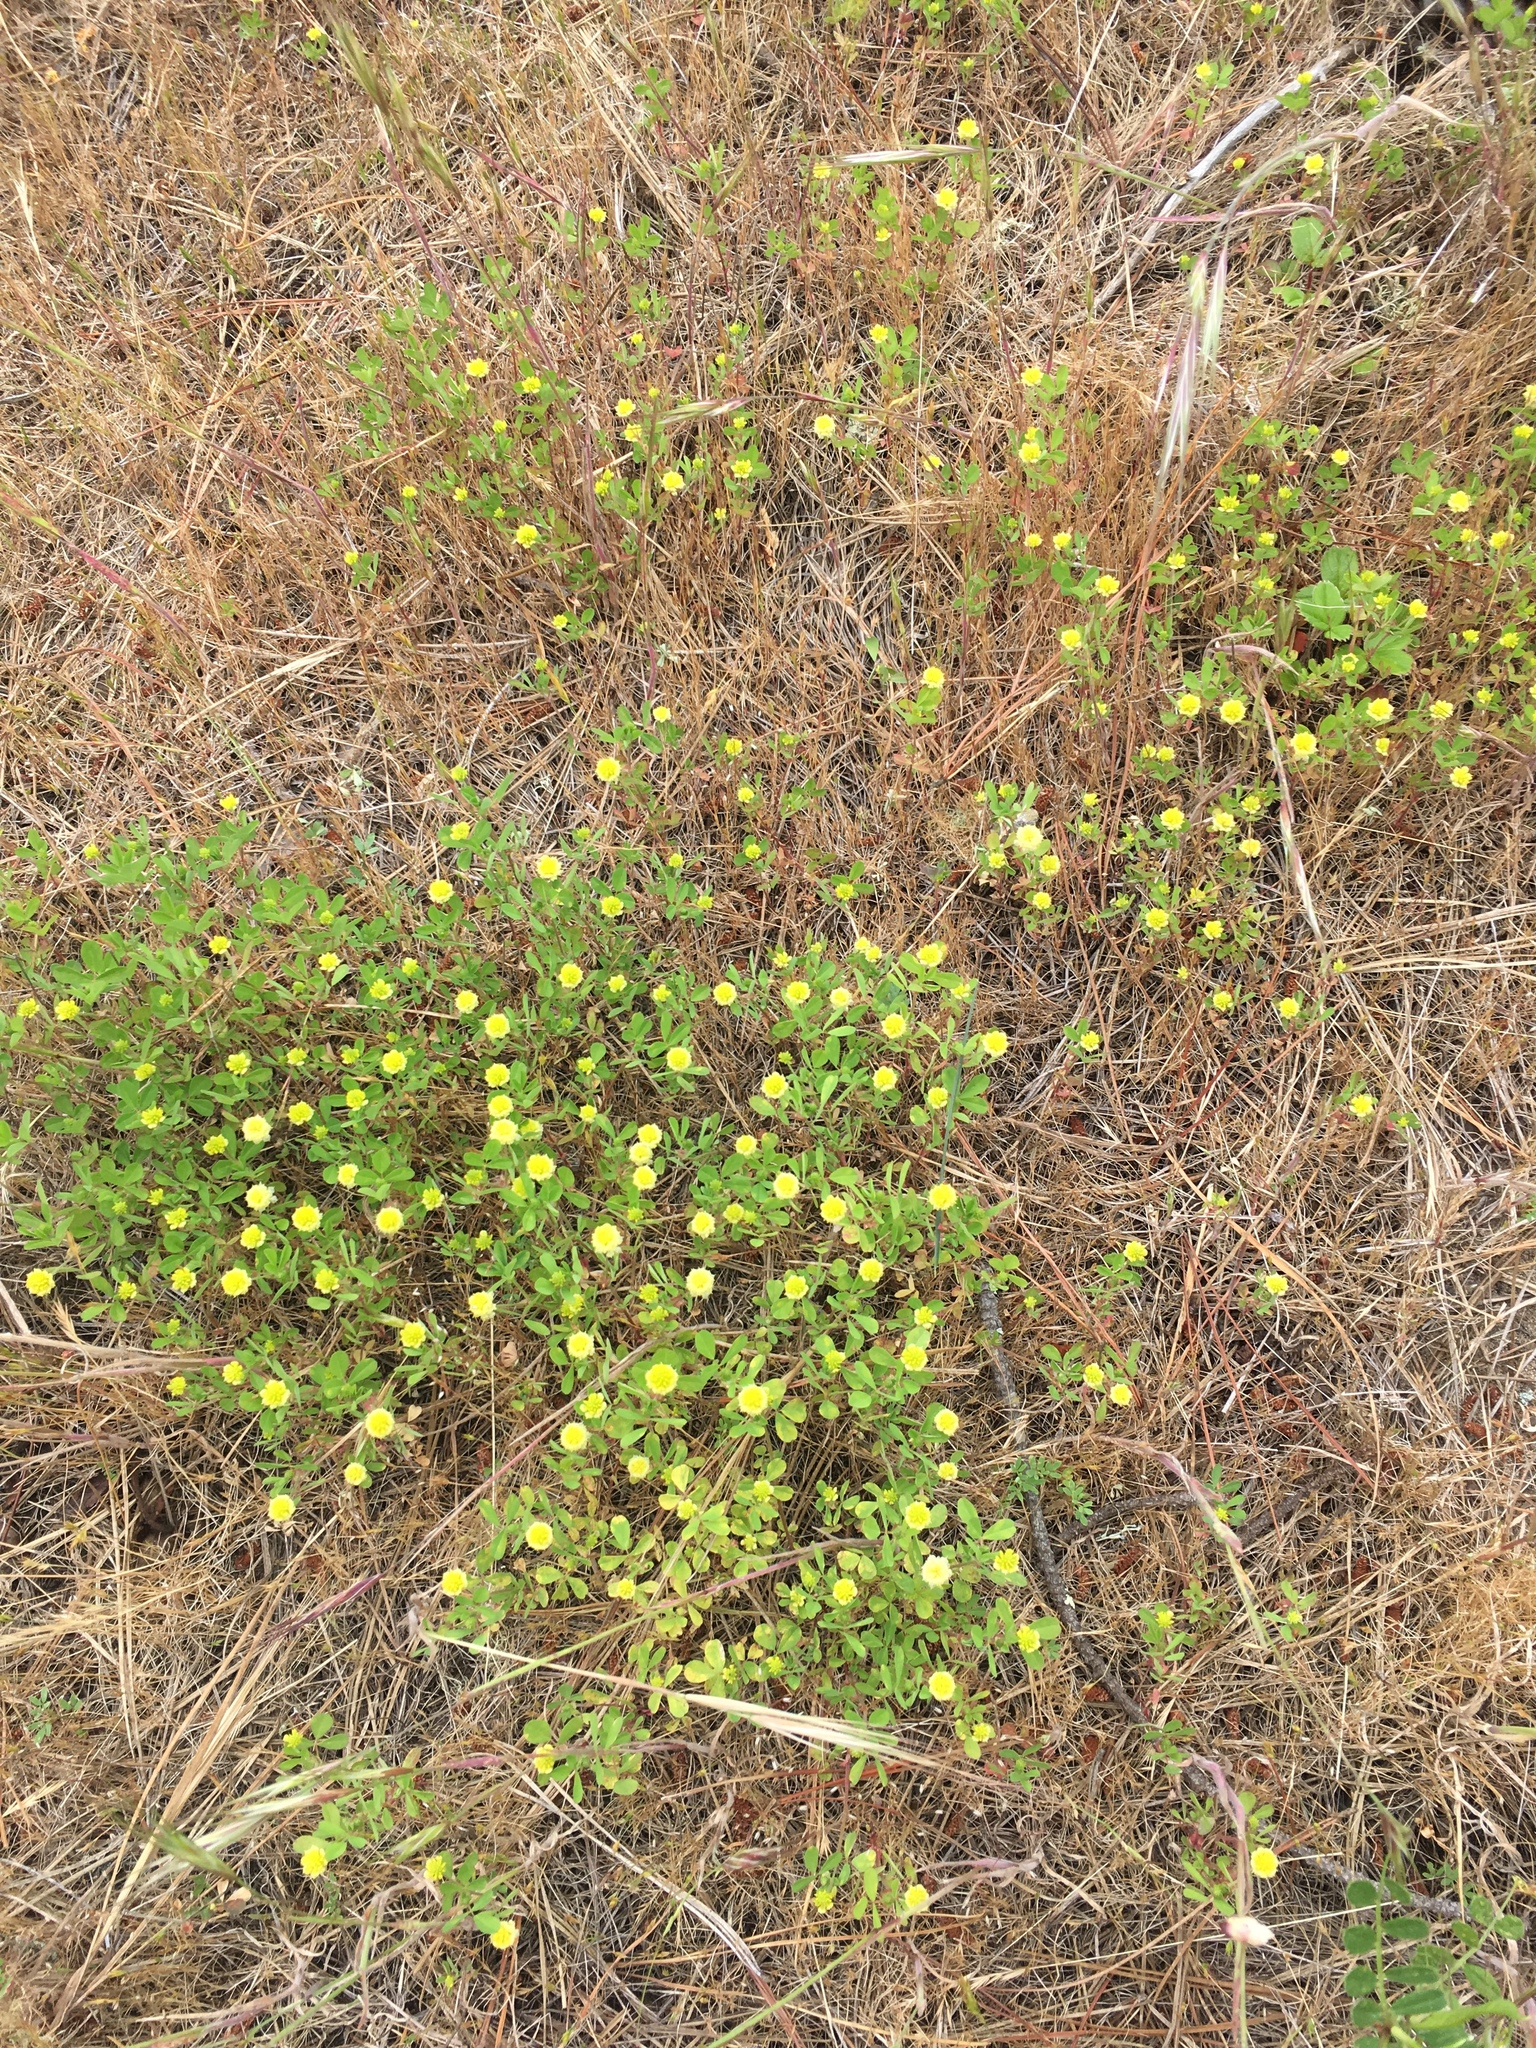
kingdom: Plantae
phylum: Tracheophyta
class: Magnoliopsida
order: Fabales
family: Fabaceae
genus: Trifolium
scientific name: Trifolium campestre
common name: Field clover
